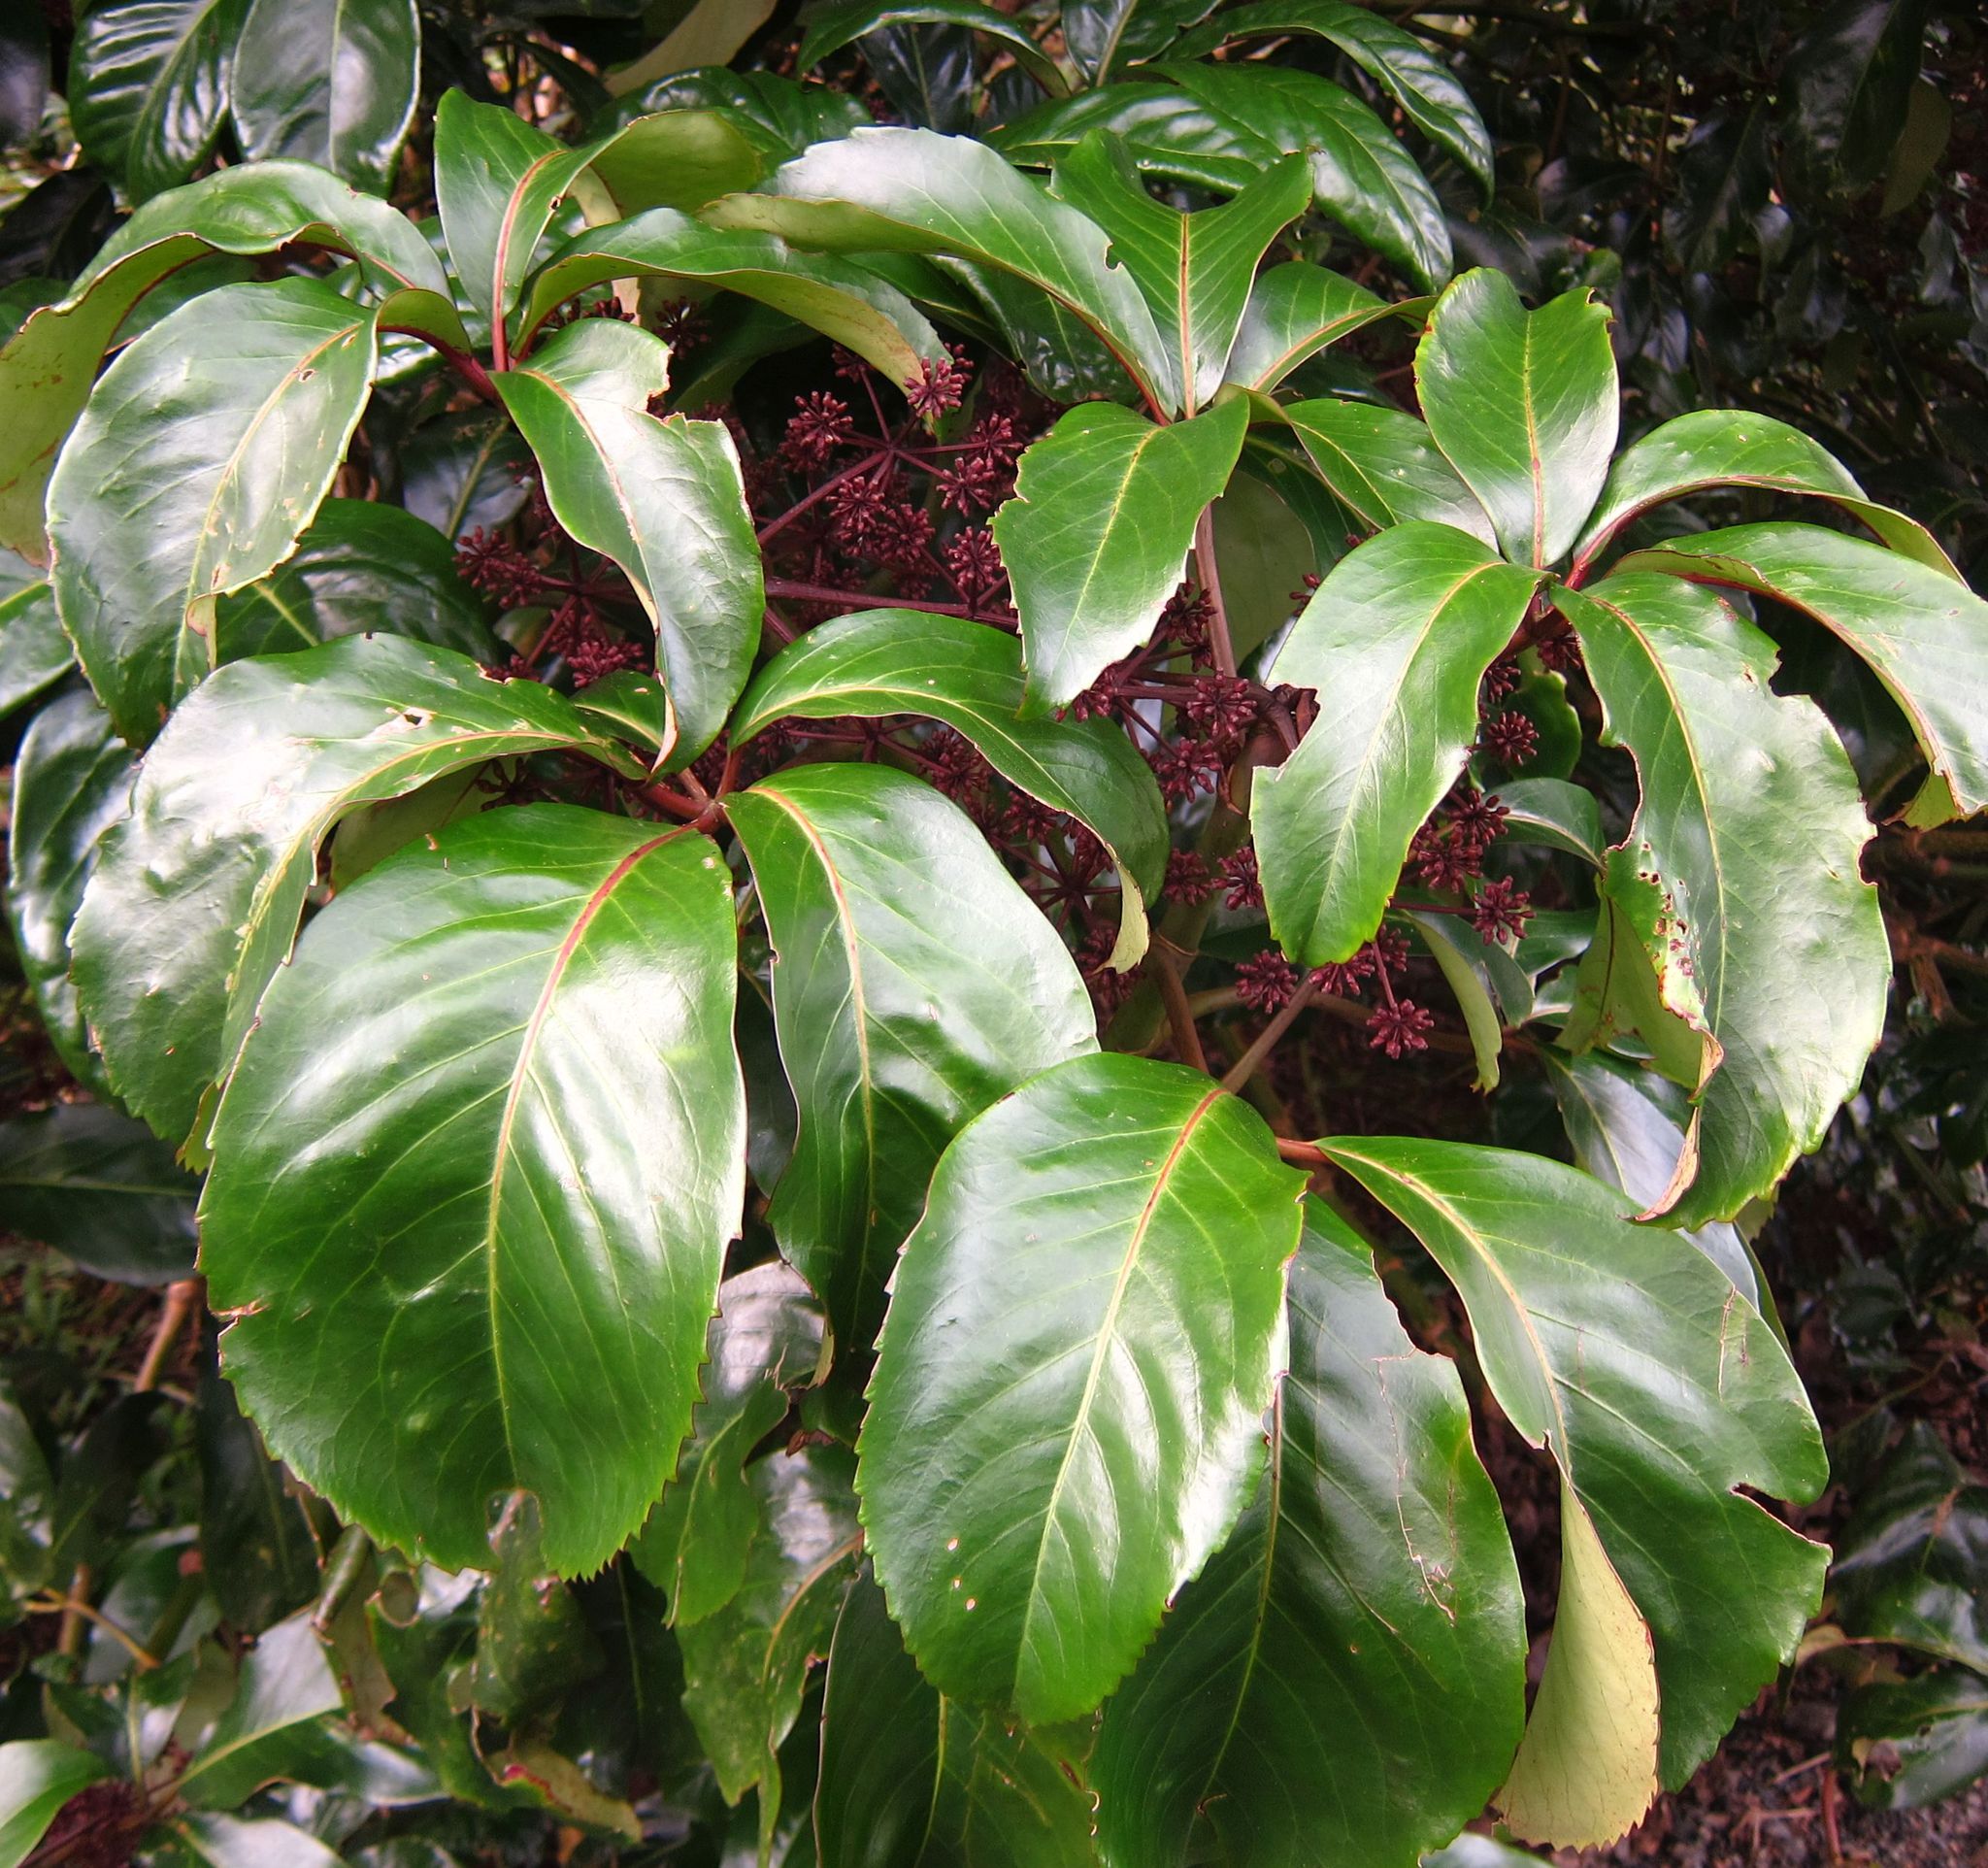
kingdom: Plantae
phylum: Tracheophyta
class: Magnoliopsida
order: Apiales
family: Araliaceae
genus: Neopanax
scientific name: Neopanax laetus
